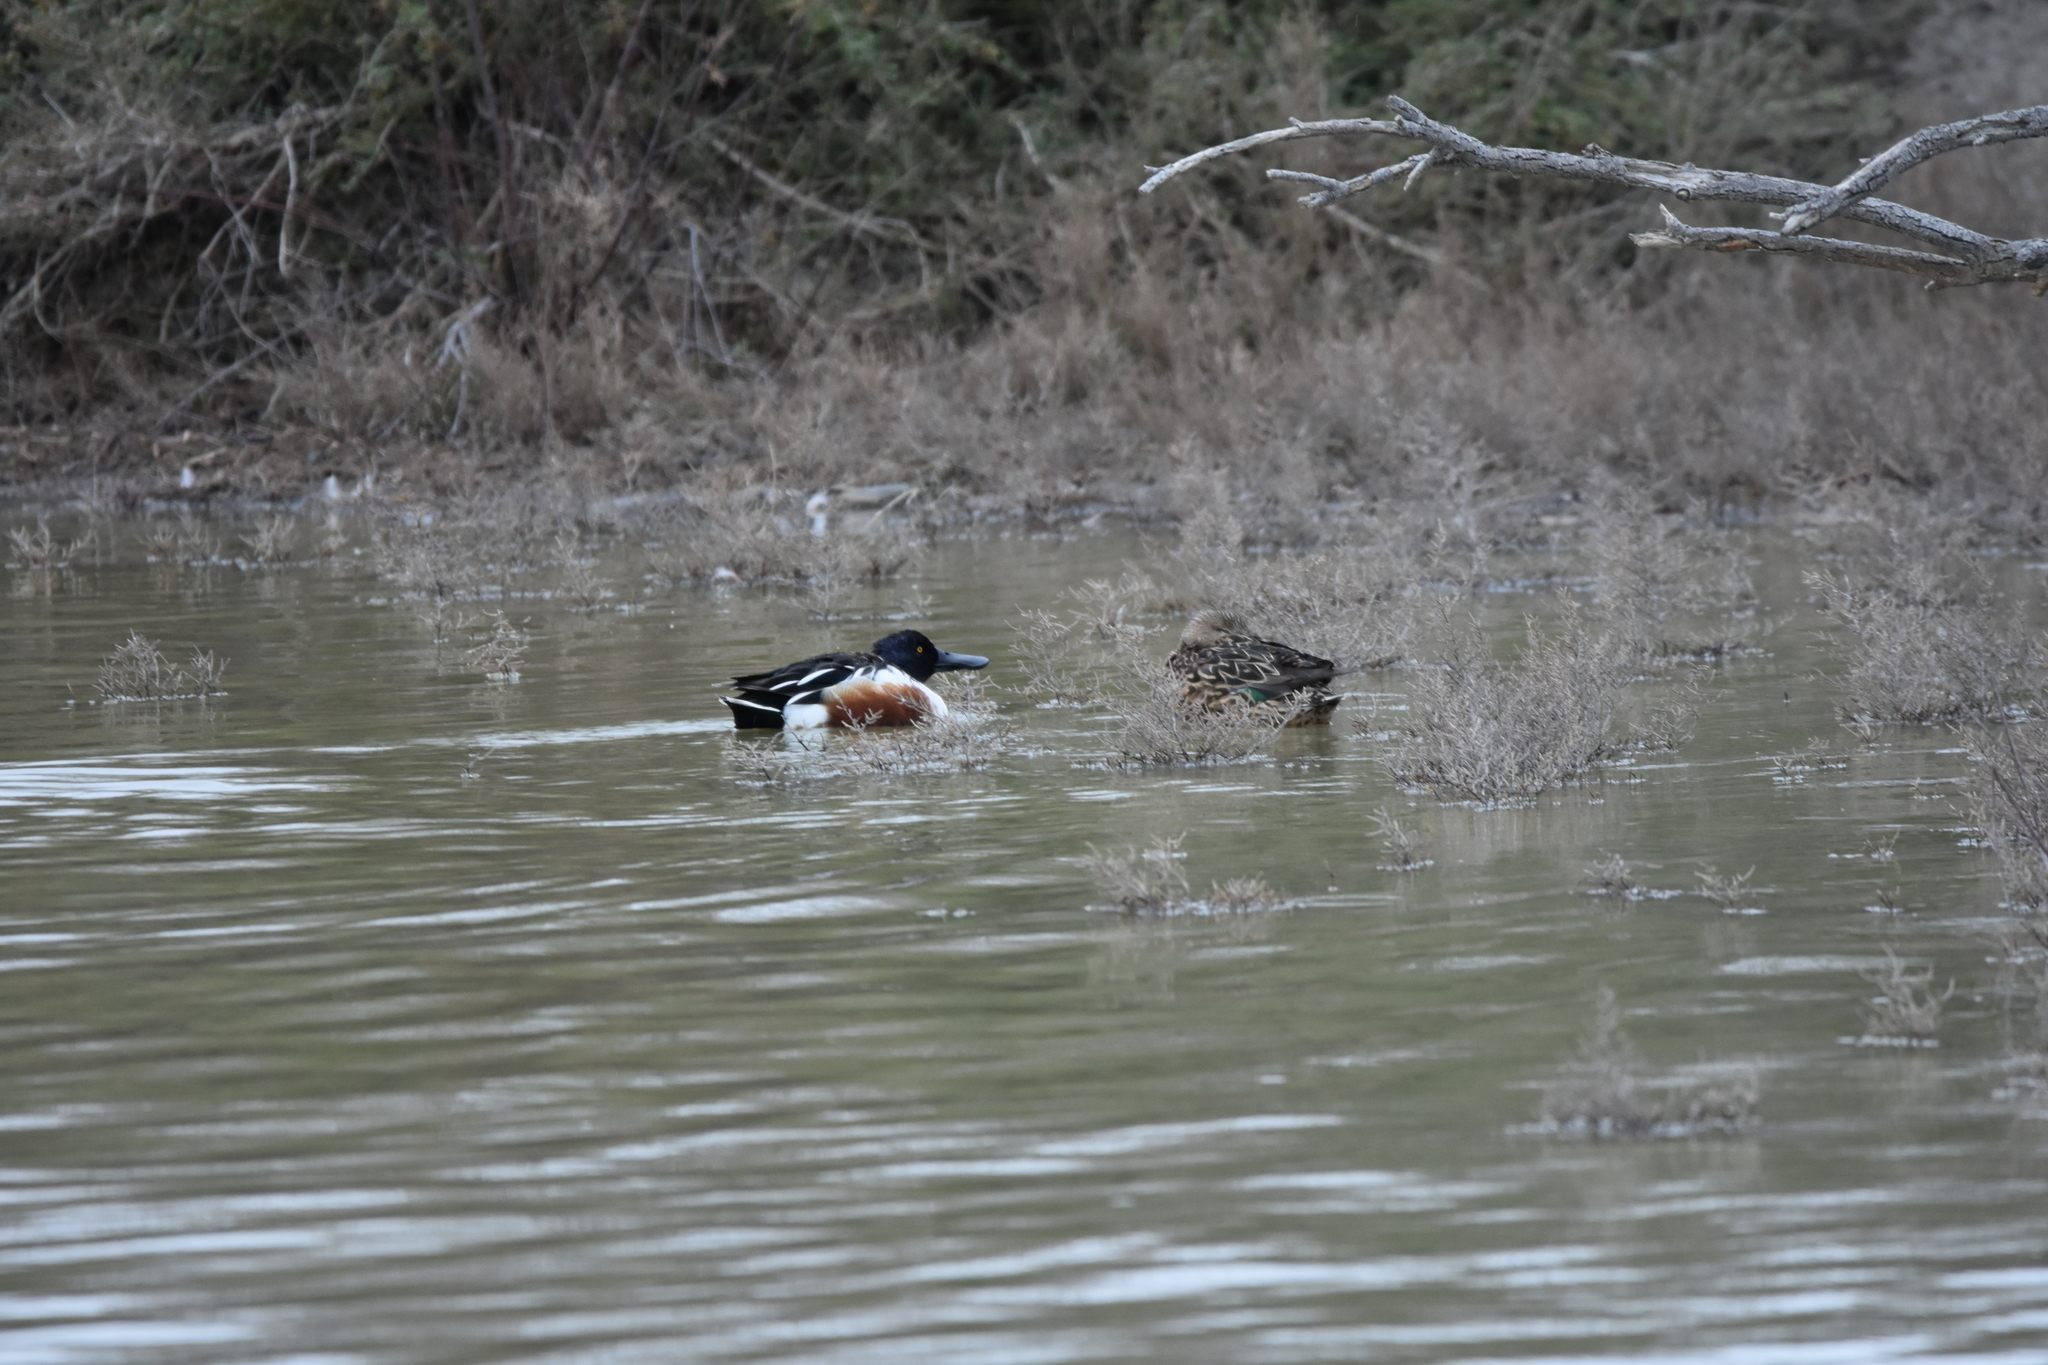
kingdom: Animalia
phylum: Chordata
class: Aves
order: Anseriformes
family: Anatidae
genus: Spatula
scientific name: Spatula clypeata
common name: Northern shoveler
